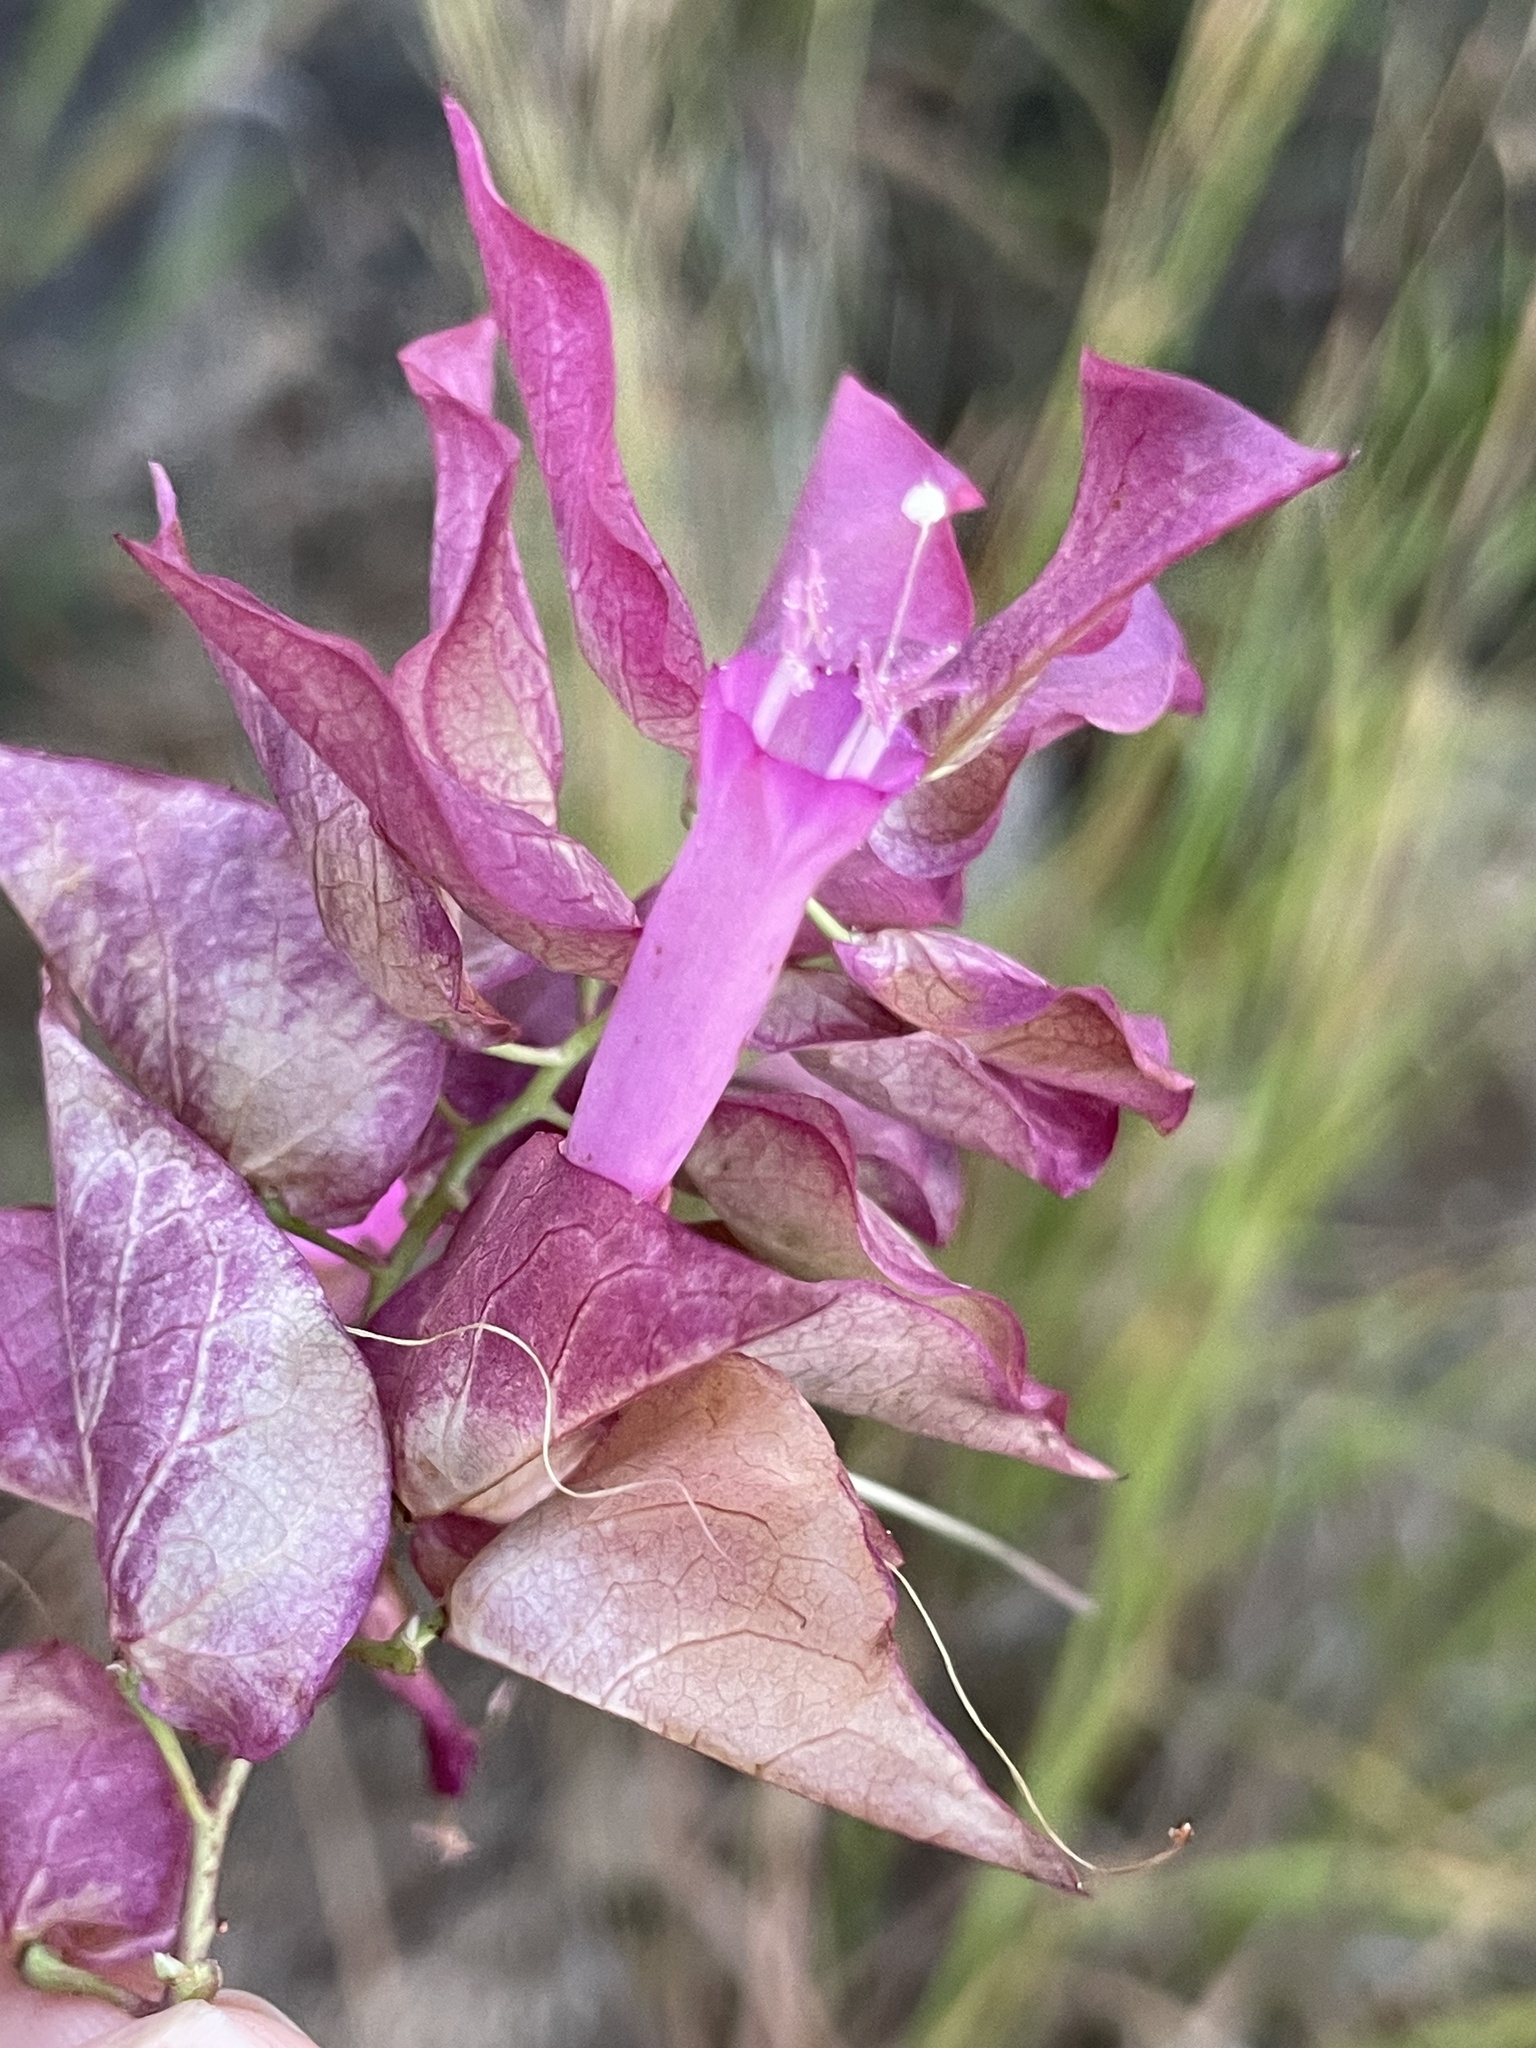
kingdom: Plantae
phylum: Tracheophyta
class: Magnoliopsida
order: Solanales
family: Convolvulaceae
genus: Ipomoea
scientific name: Ipomoea bracteata
